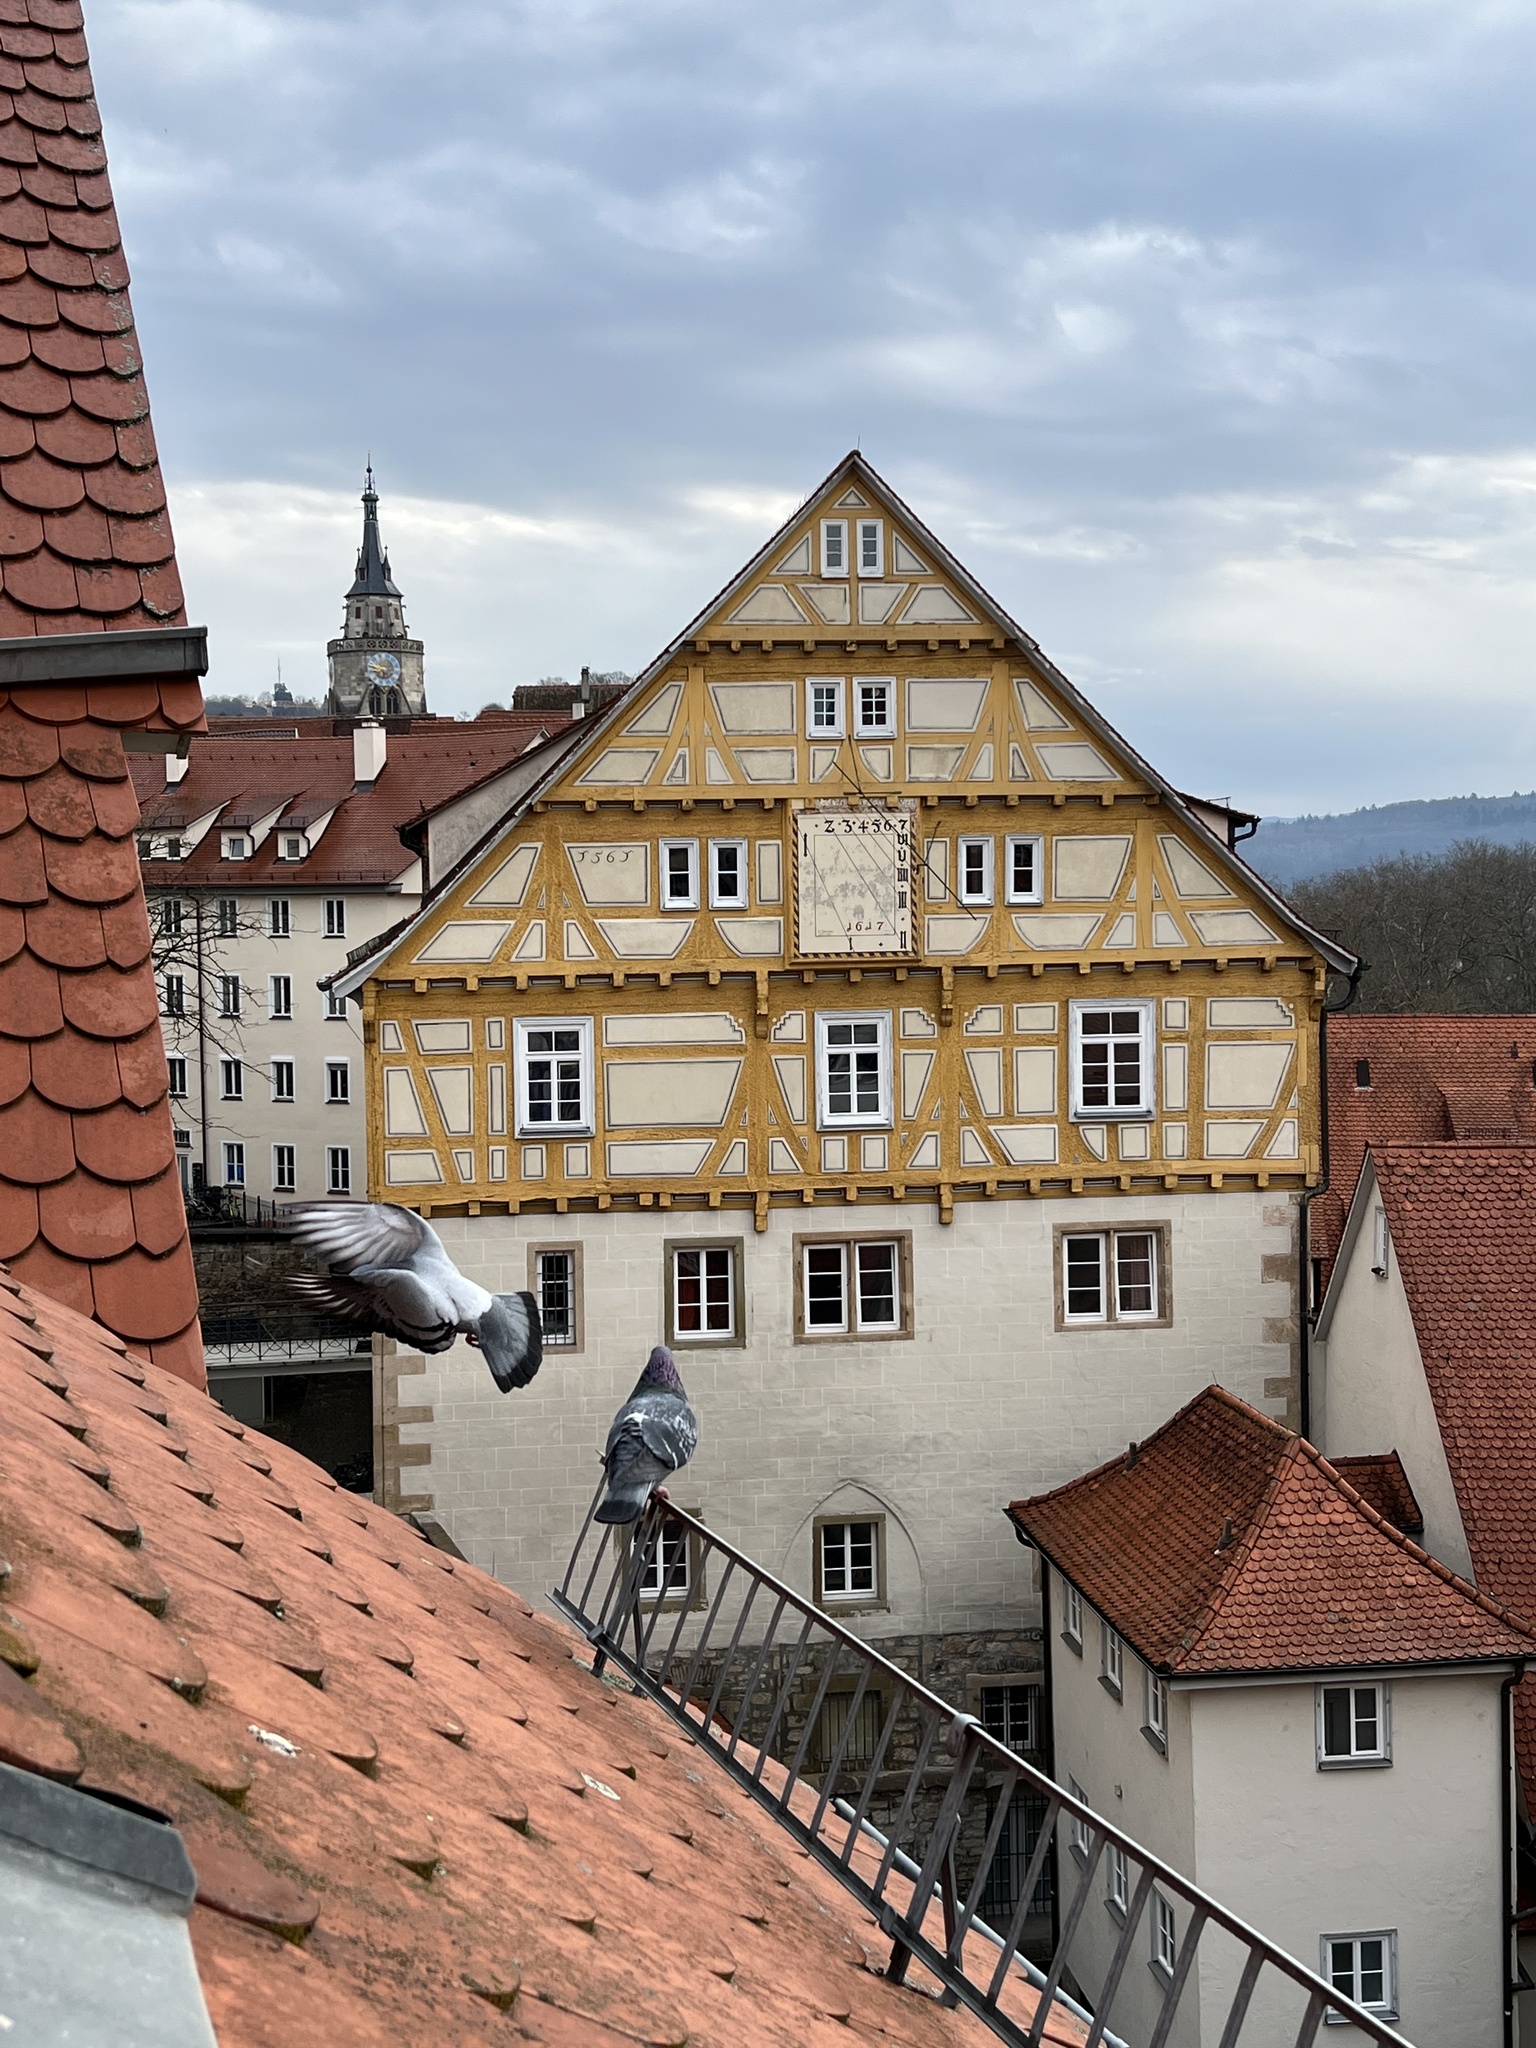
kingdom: Animalia
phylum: Chordata
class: Aves
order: Columbiformes
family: Columbidae
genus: Columba
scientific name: Columba livia
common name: Rock pigeon
